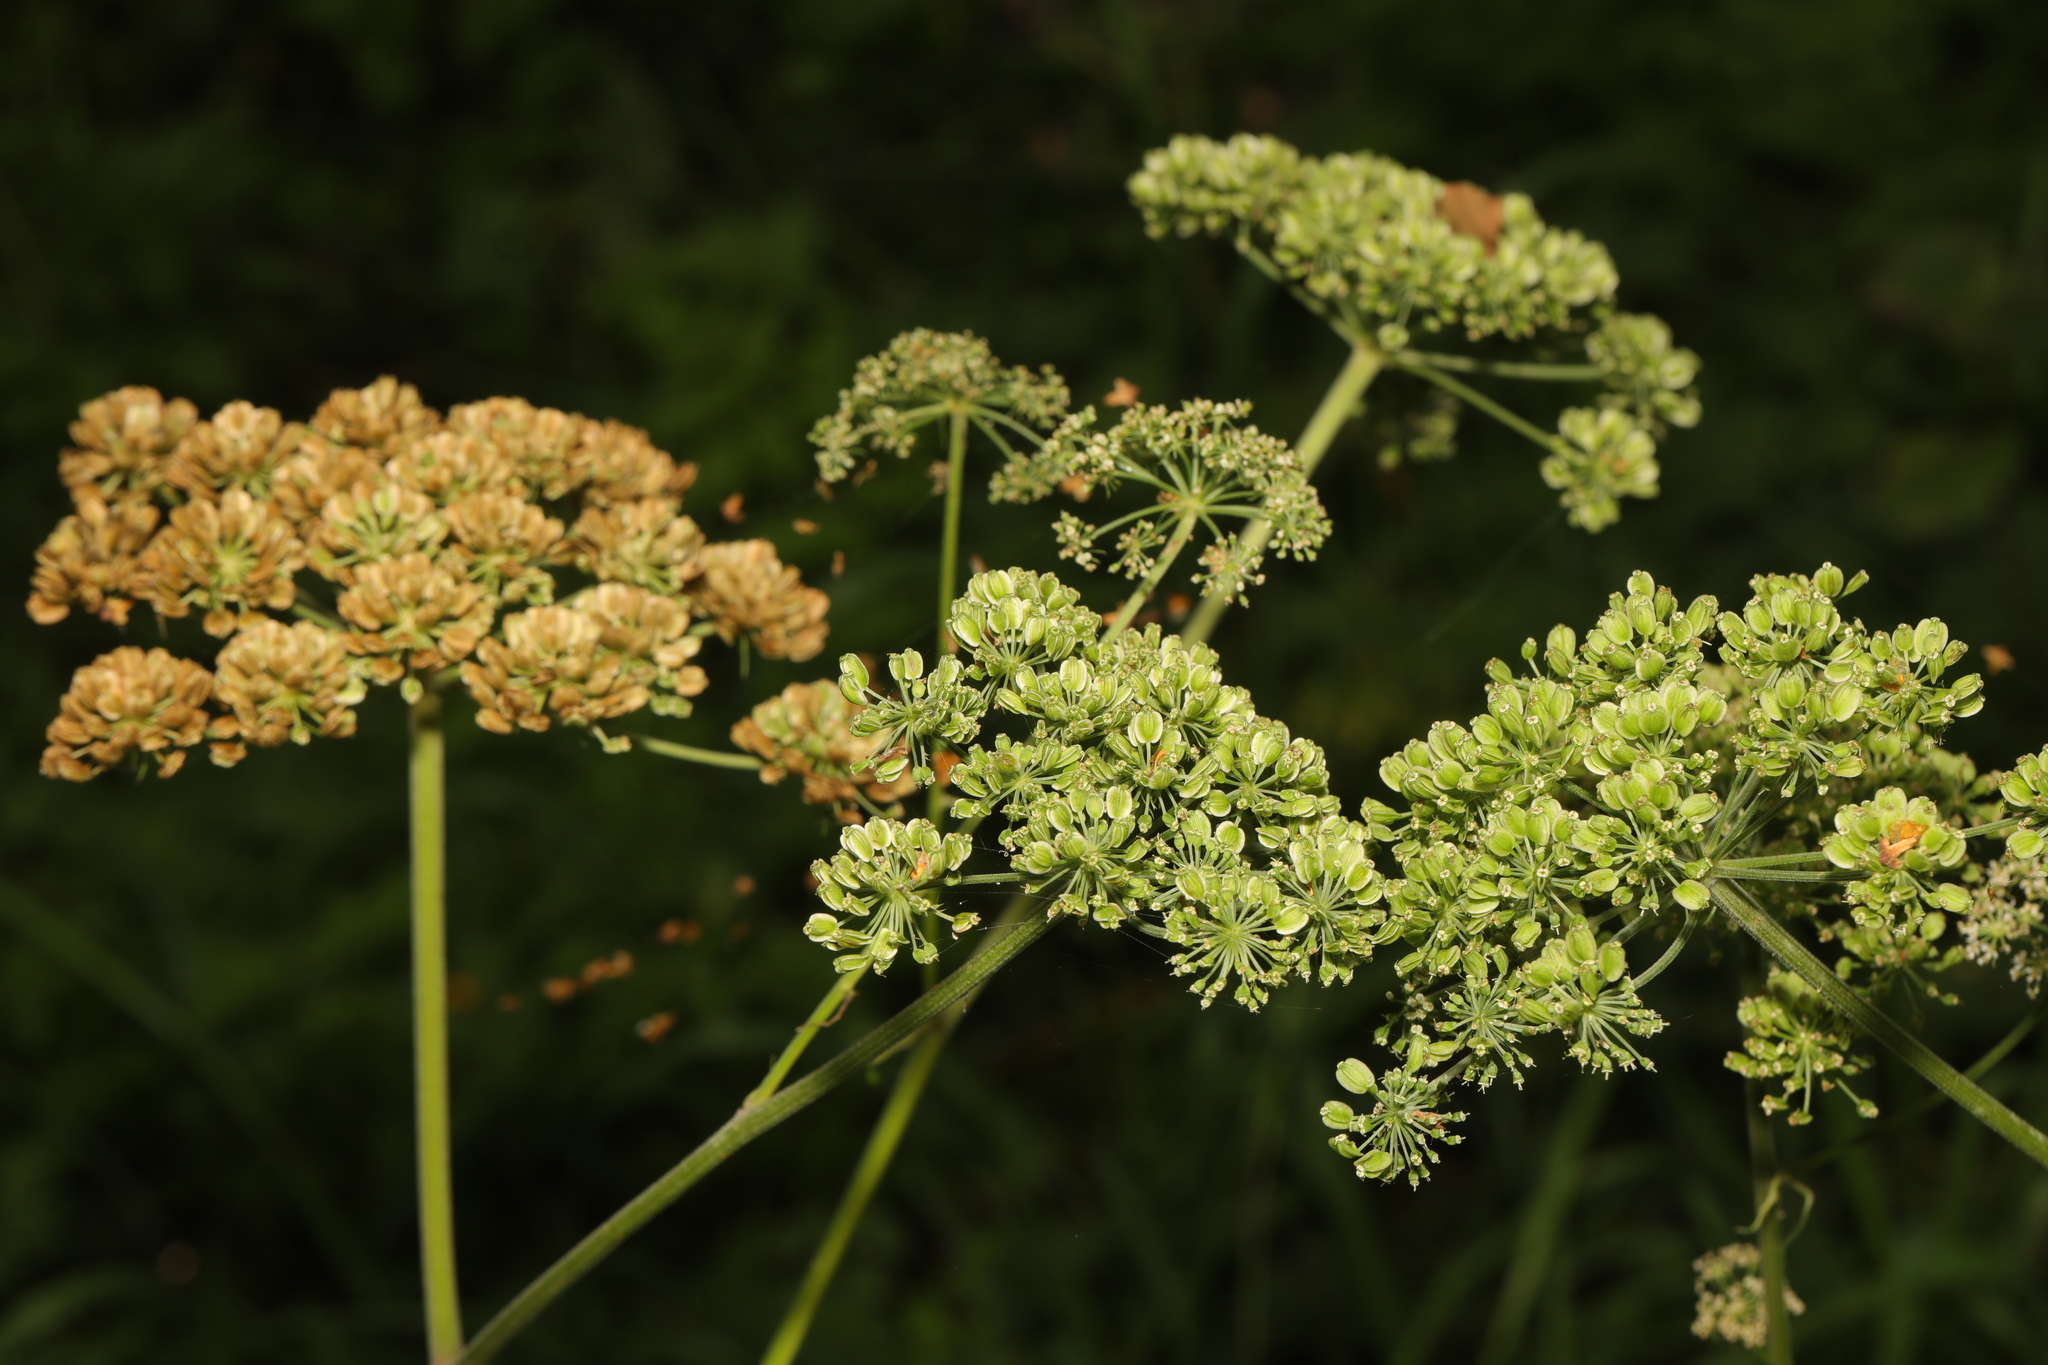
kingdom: Plantae
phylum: Tracheophyta
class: Magnoliopsida
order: Apiales
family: Apiaceae
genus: Angelica
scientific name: Angelica sylvestris
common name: Wild angelica
